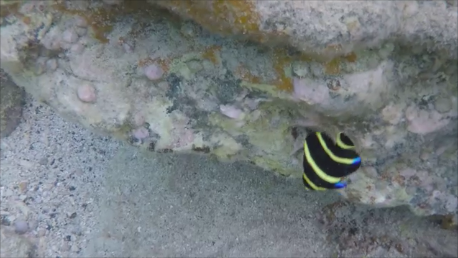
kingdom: Animalia
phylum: Chordata
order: Perciformes
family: Pomacanthidae
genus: Pomacanthus
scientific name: Pomacanthus paru
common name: French angelfish
